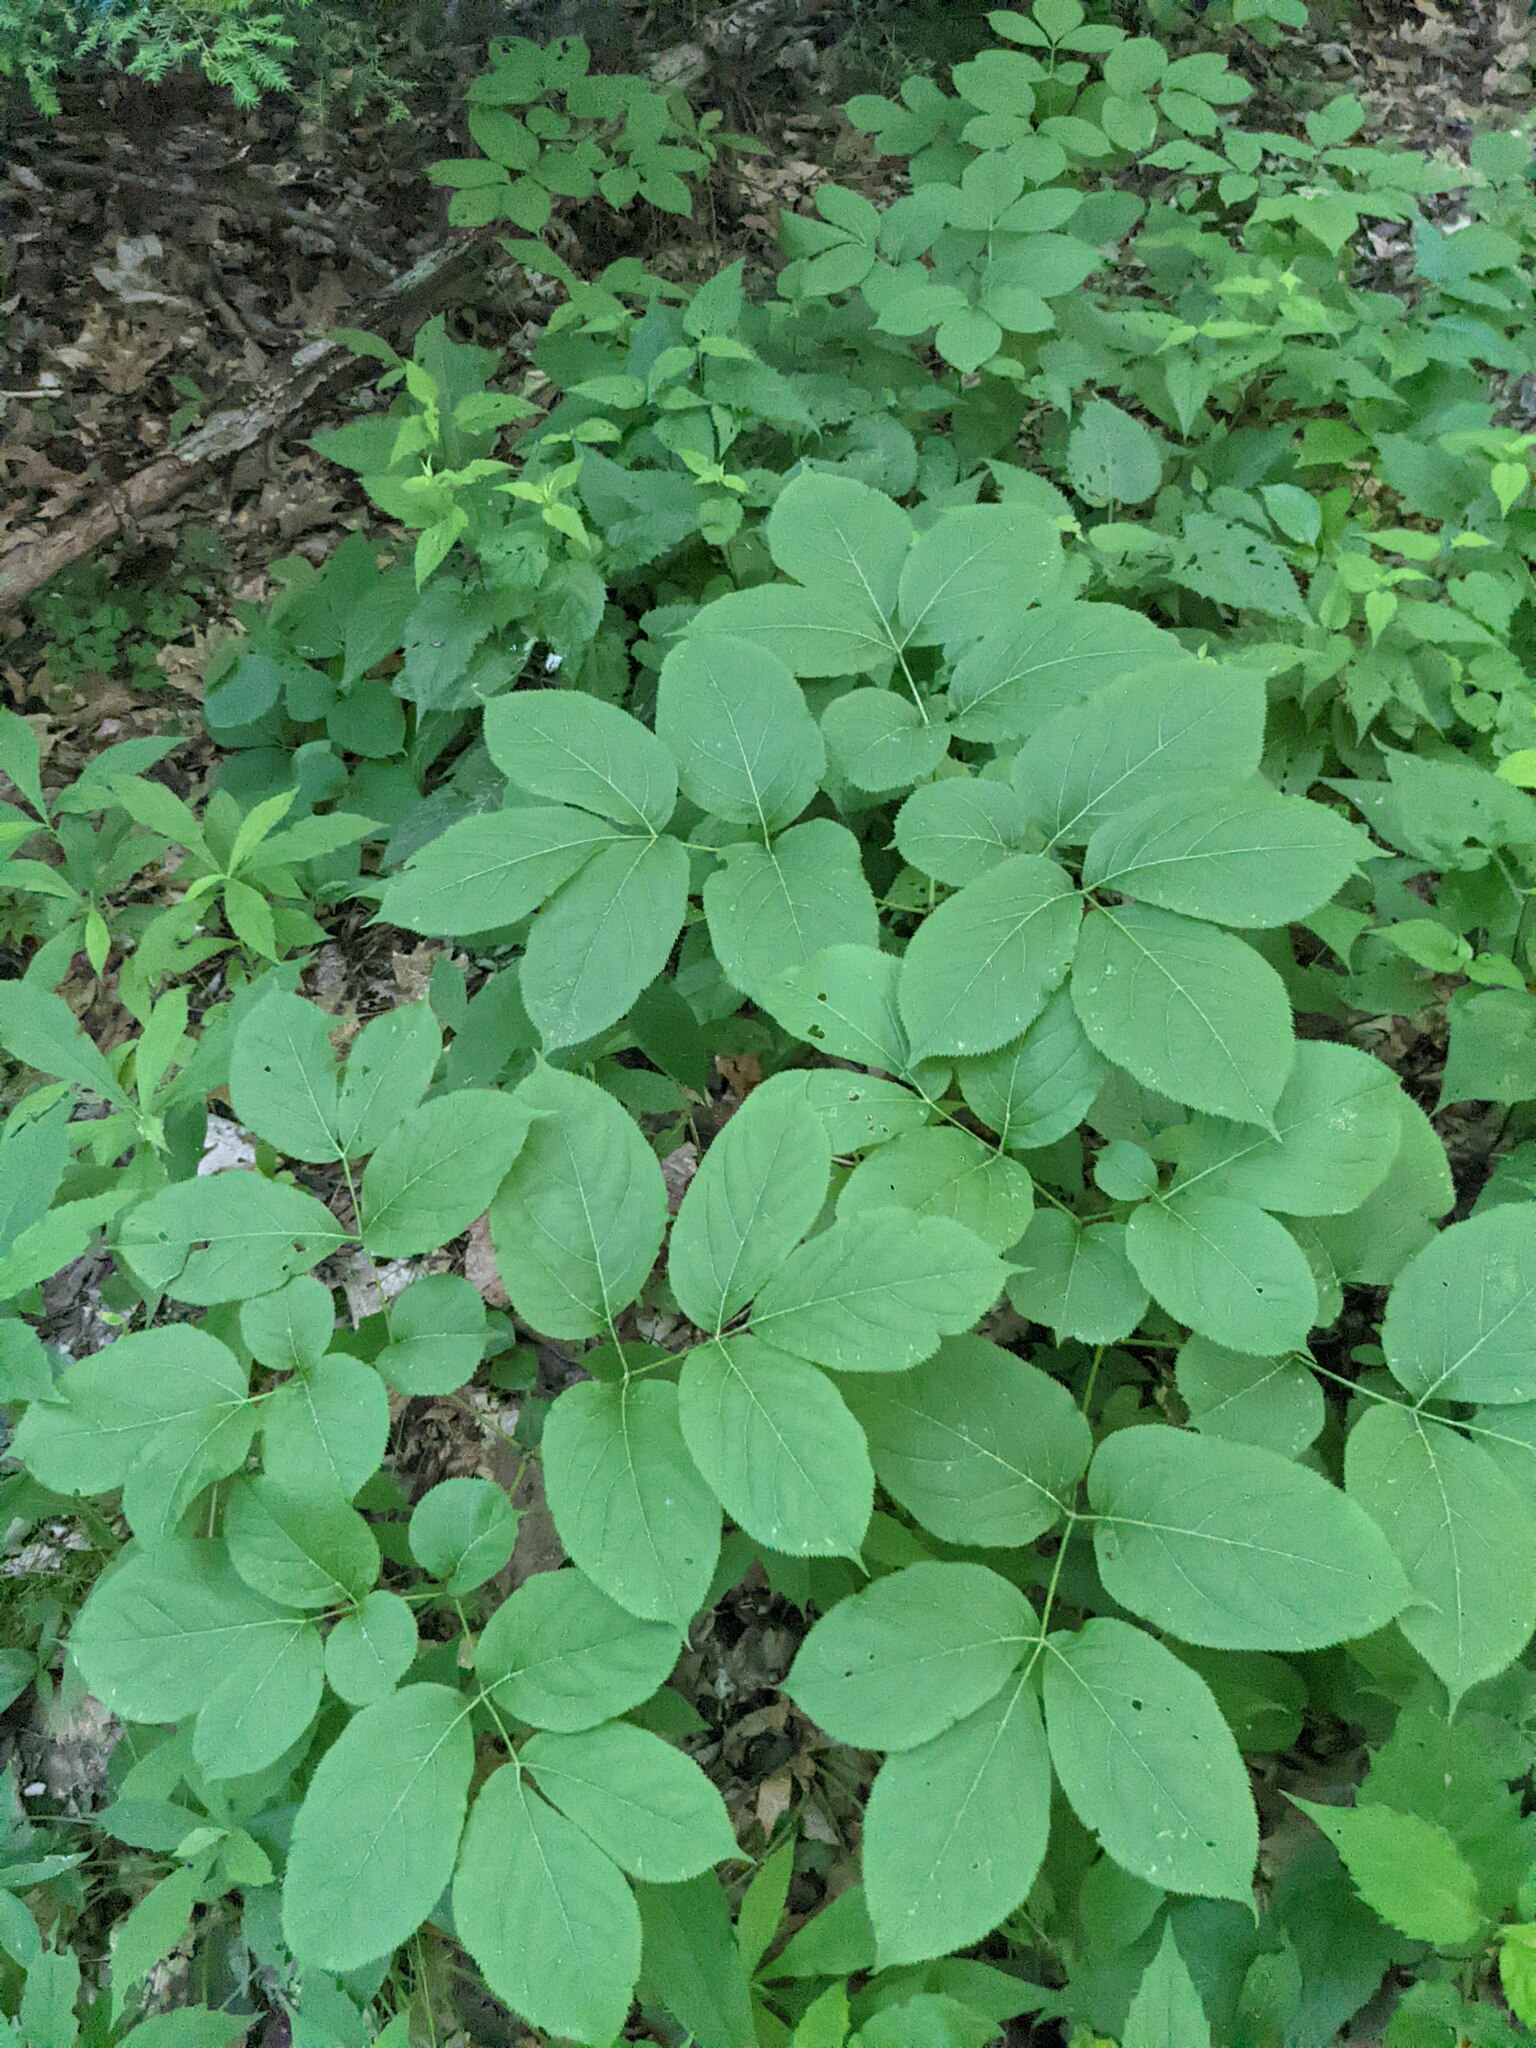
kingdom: Plantae
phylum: Tracheophyta
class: Magnoliopsida
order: Apiales
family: Araliaceae
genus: Aralia
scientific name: Aralia nudicaulis
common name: Wild sarsaparilla
